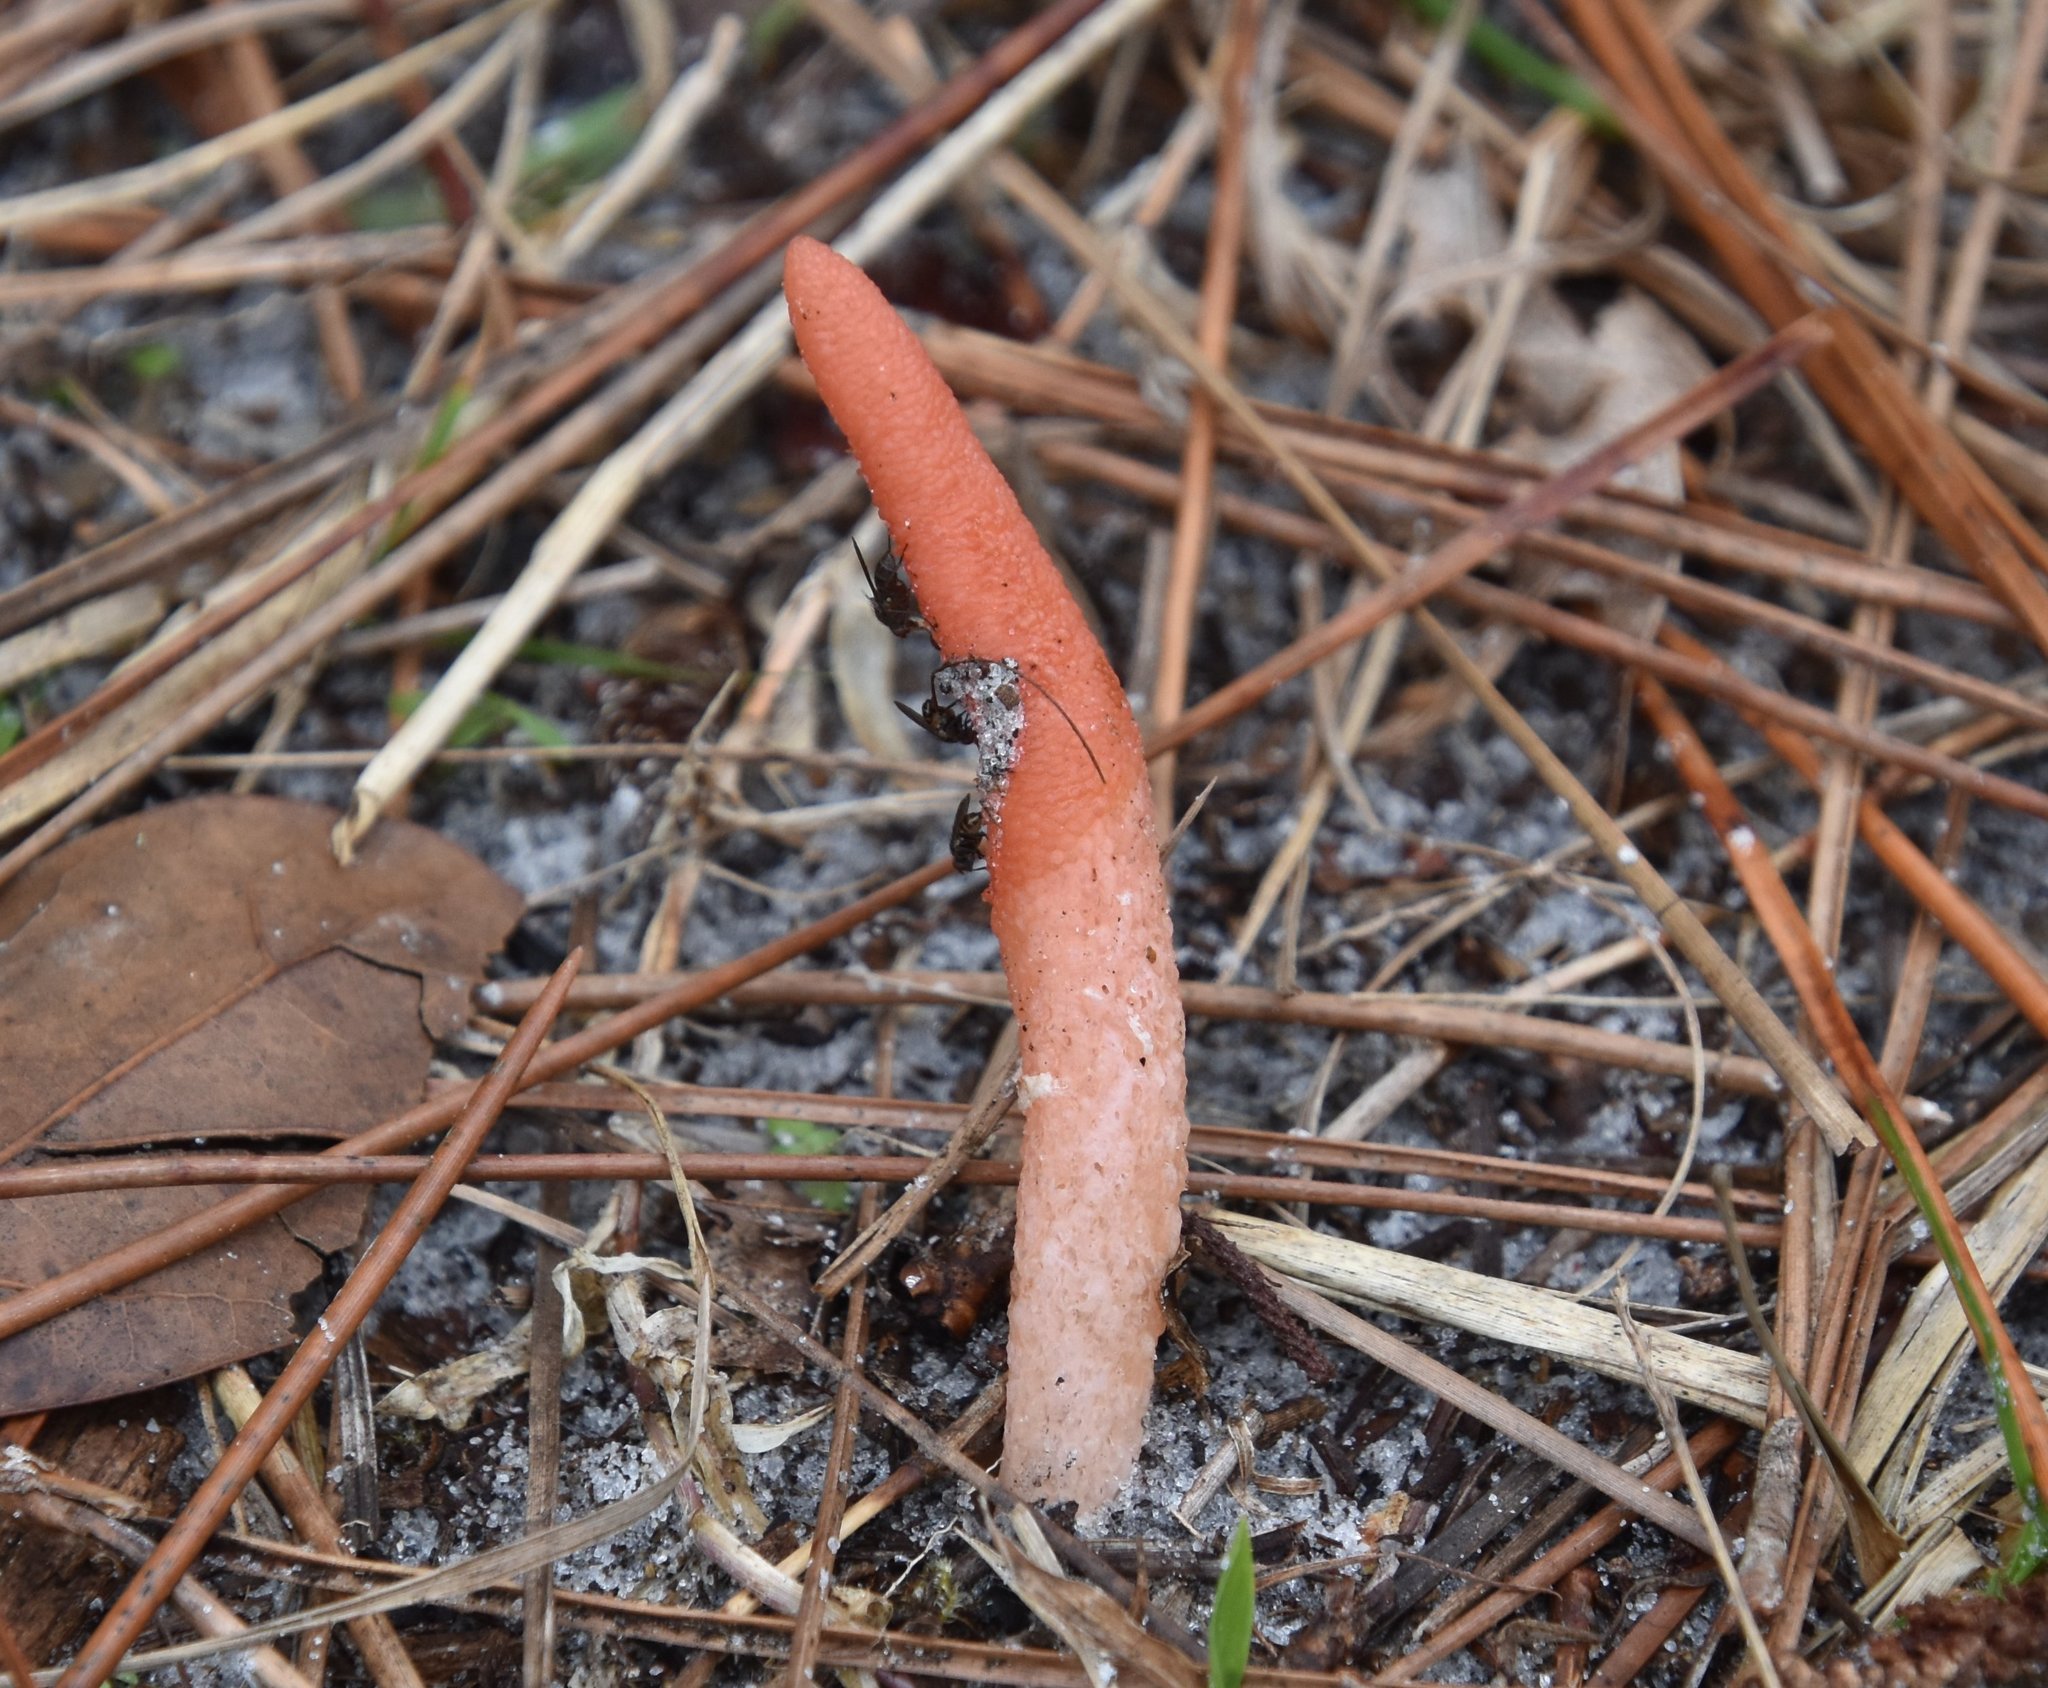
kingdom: Fungi
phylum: Basidiomycota
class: Agaricomycetes
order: Phallales
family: Phallaceae
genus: Mutinus
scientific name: Mutinus elegans
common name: Devil's dipstick
